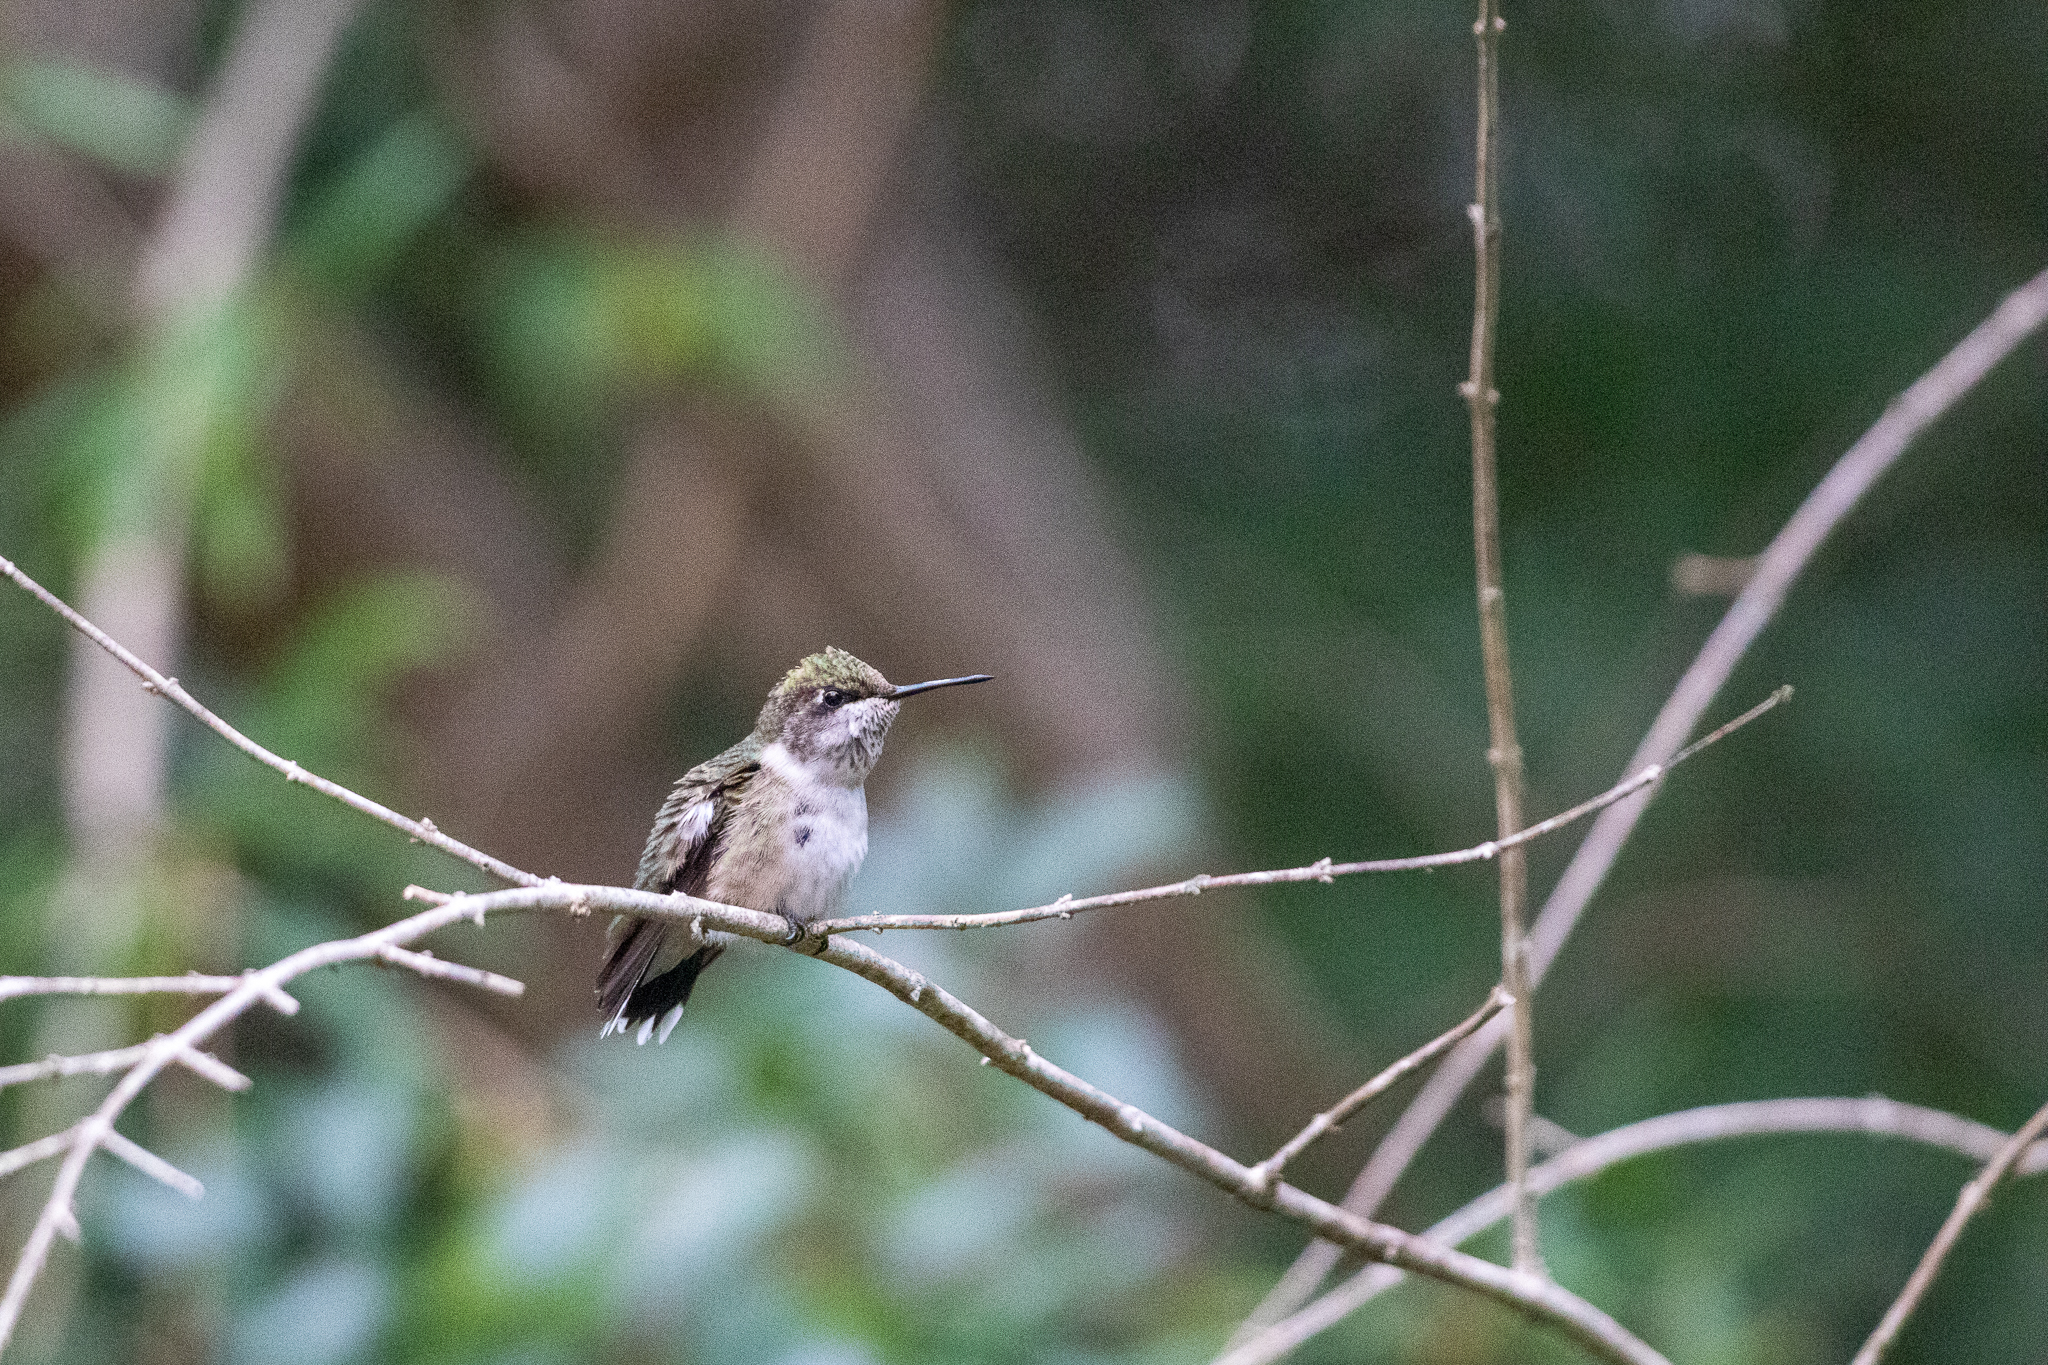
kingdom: Animalia
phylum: Chordata
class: Aves
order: Apodiformes
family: Trochilidae
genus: Archilochus
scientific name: Archilochus colubris
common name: Ruby-throated hummingbird
